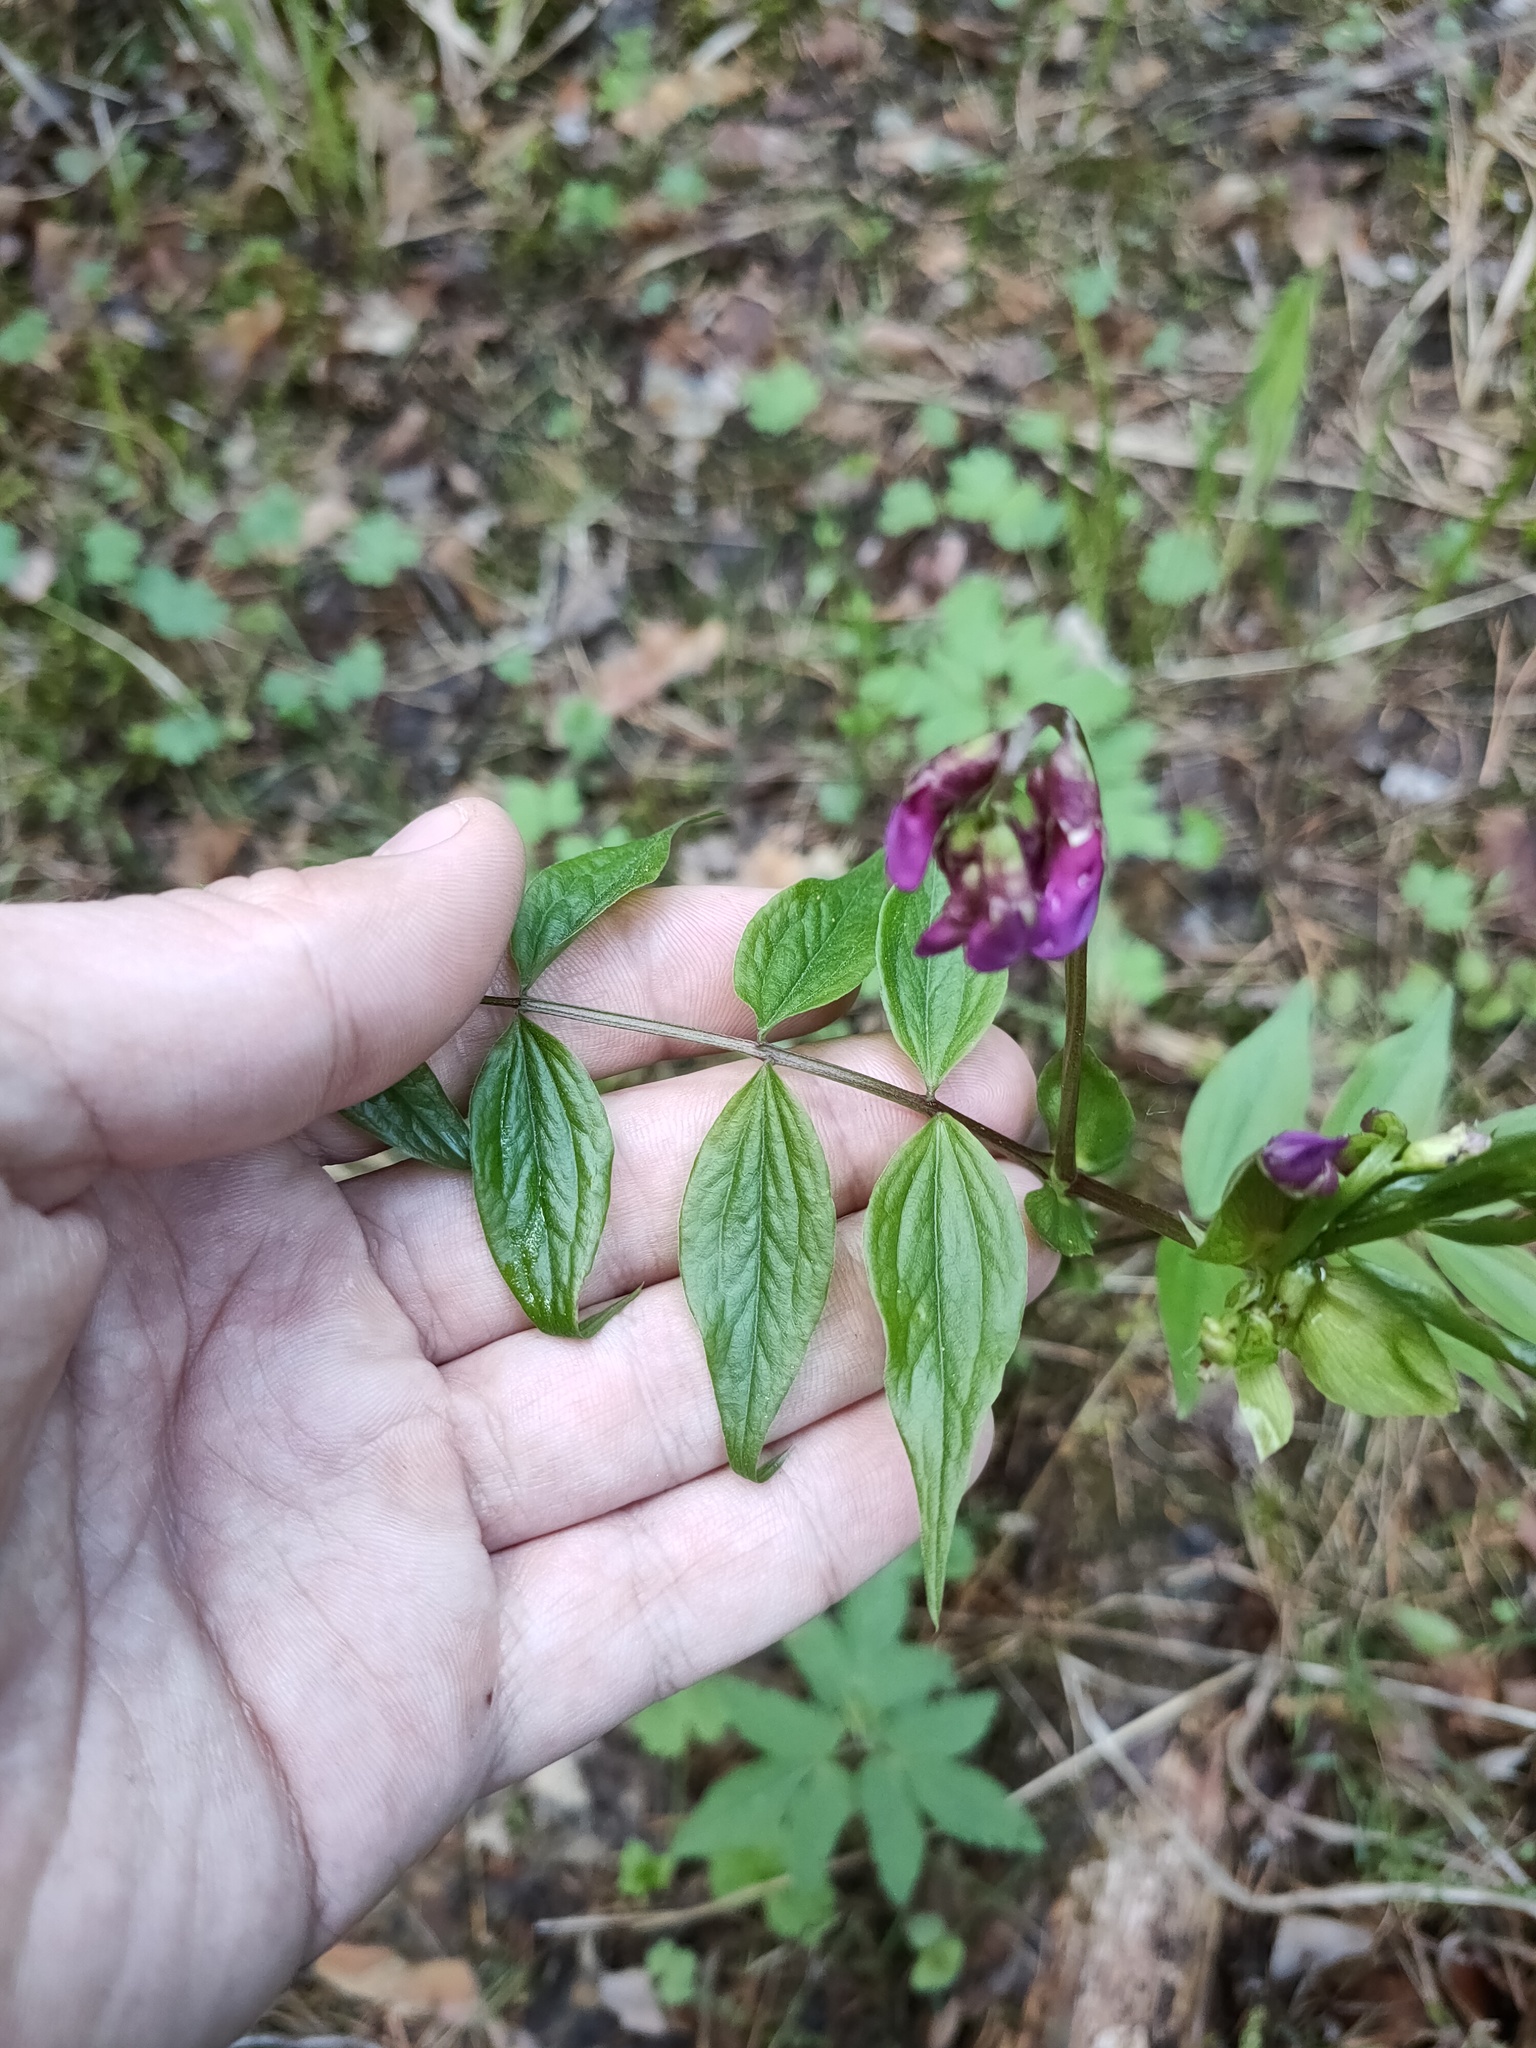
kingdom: Plantae
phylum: Tracheophyta
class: Magnoliopsida
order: Fabales
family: Fabaceae
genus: Lathyrus
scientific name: Lathyrus vernus
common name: Spring pea
